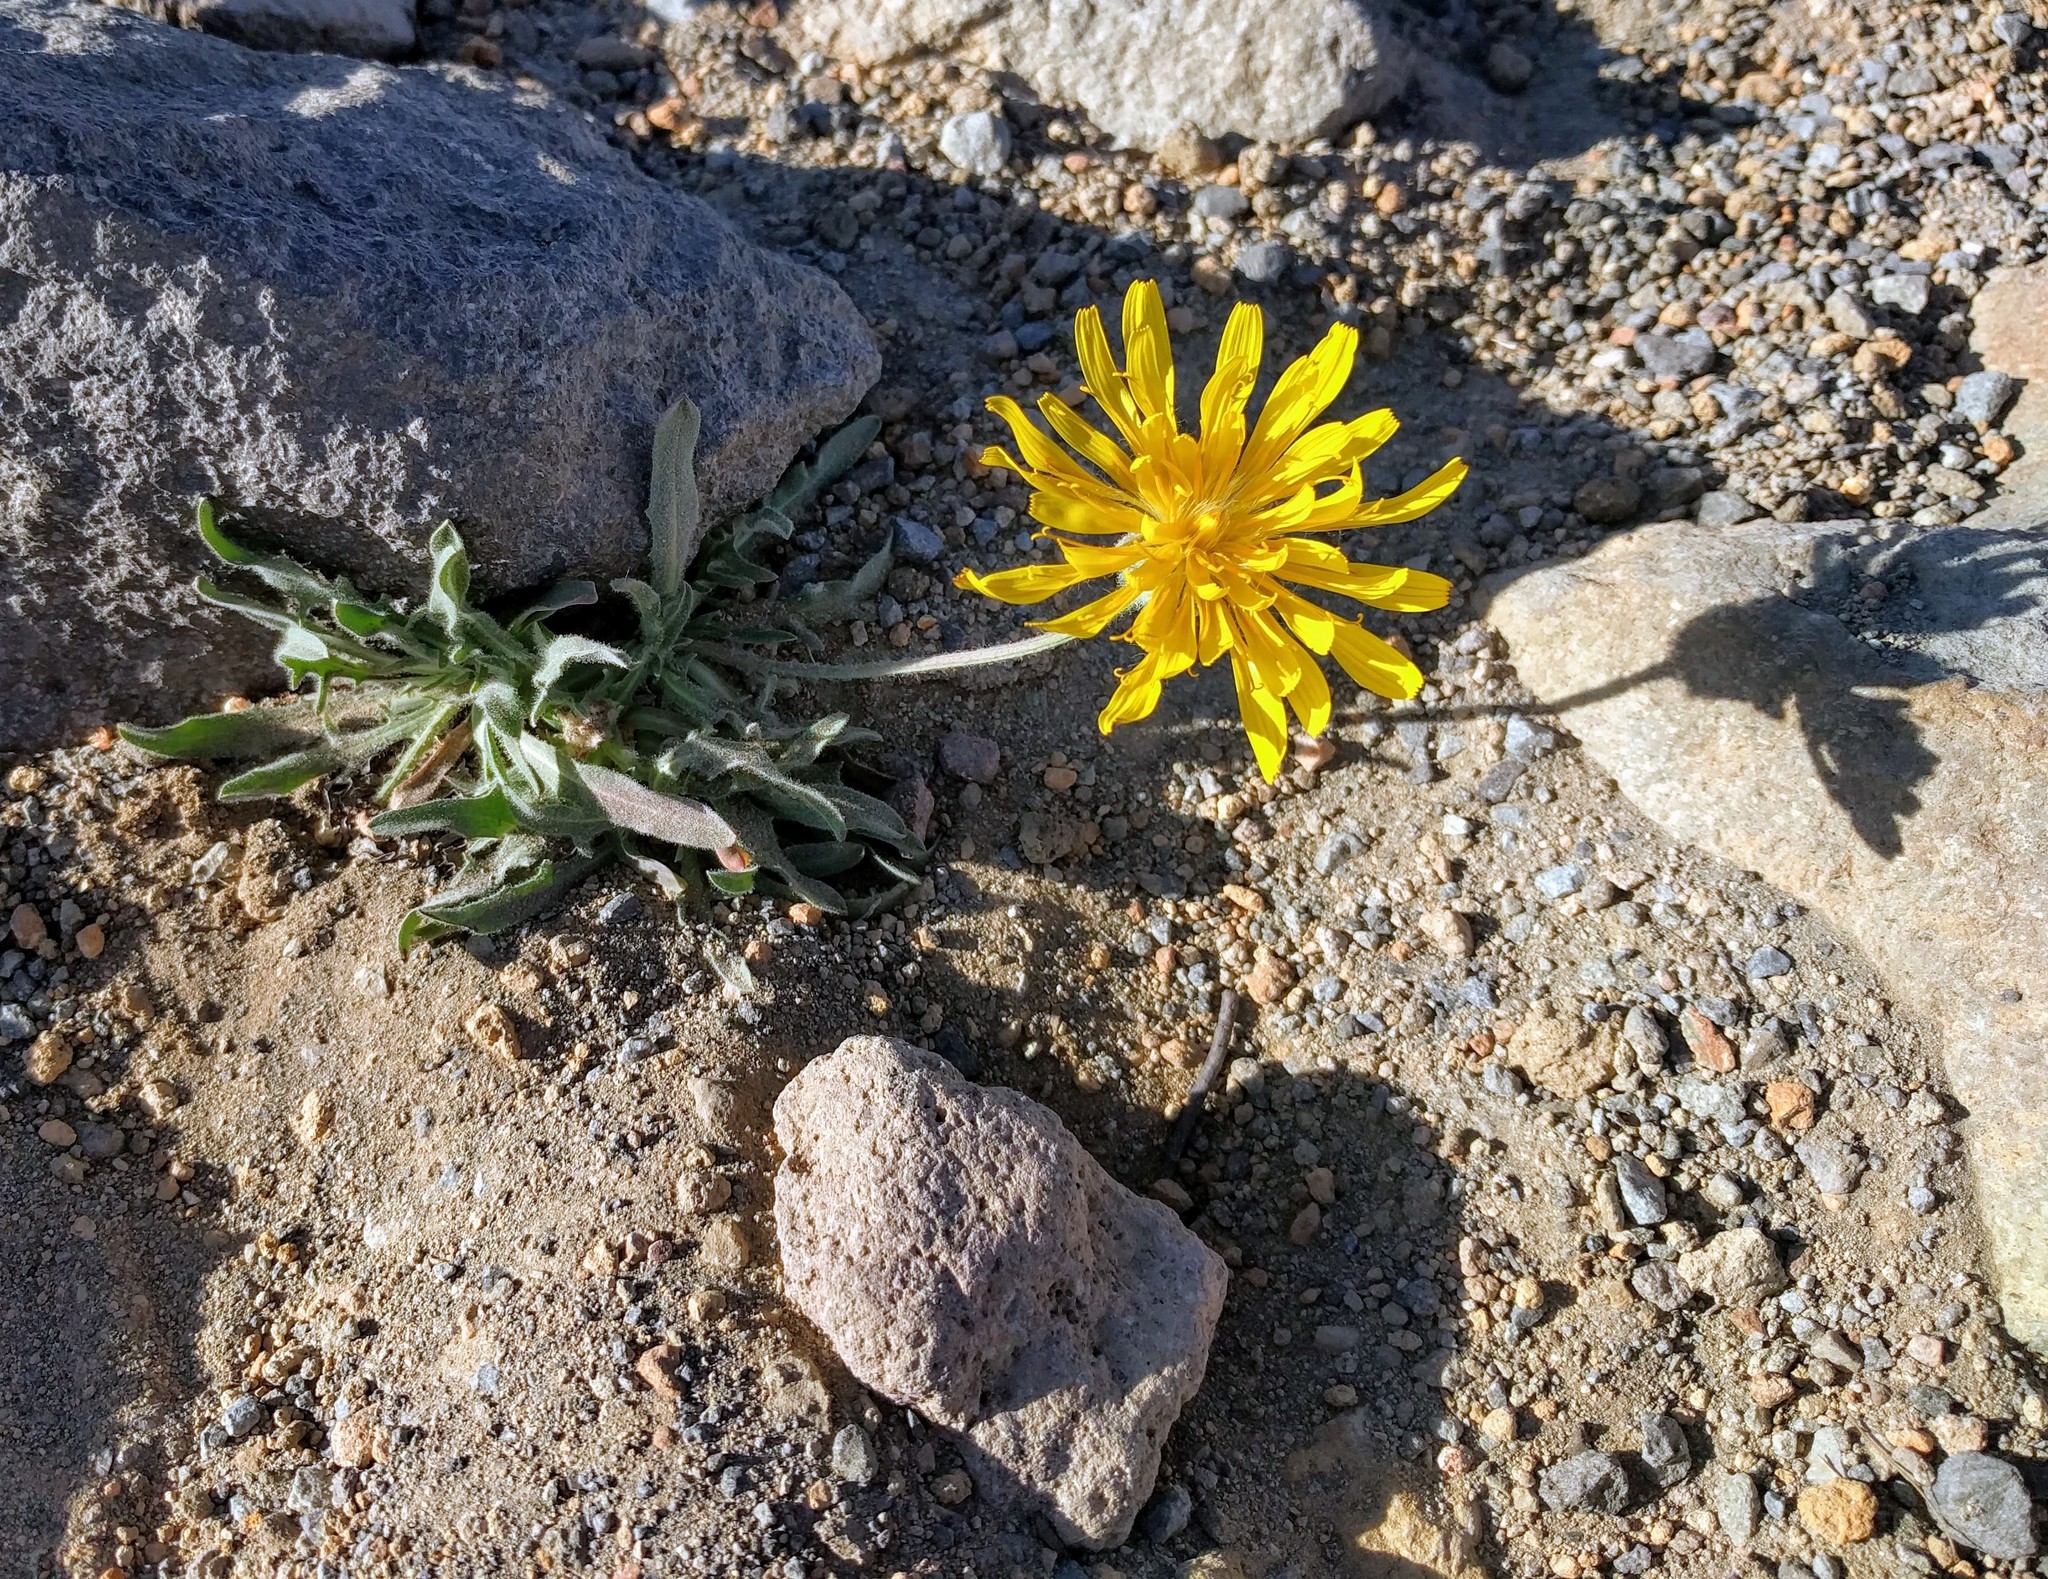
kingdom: Plantae
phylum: Tracheophyta
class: Magnoliopsida
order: Asterales
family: Asteraceae
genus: Agoseris
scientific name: Agoseris glauca
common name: Prairie agoseris
